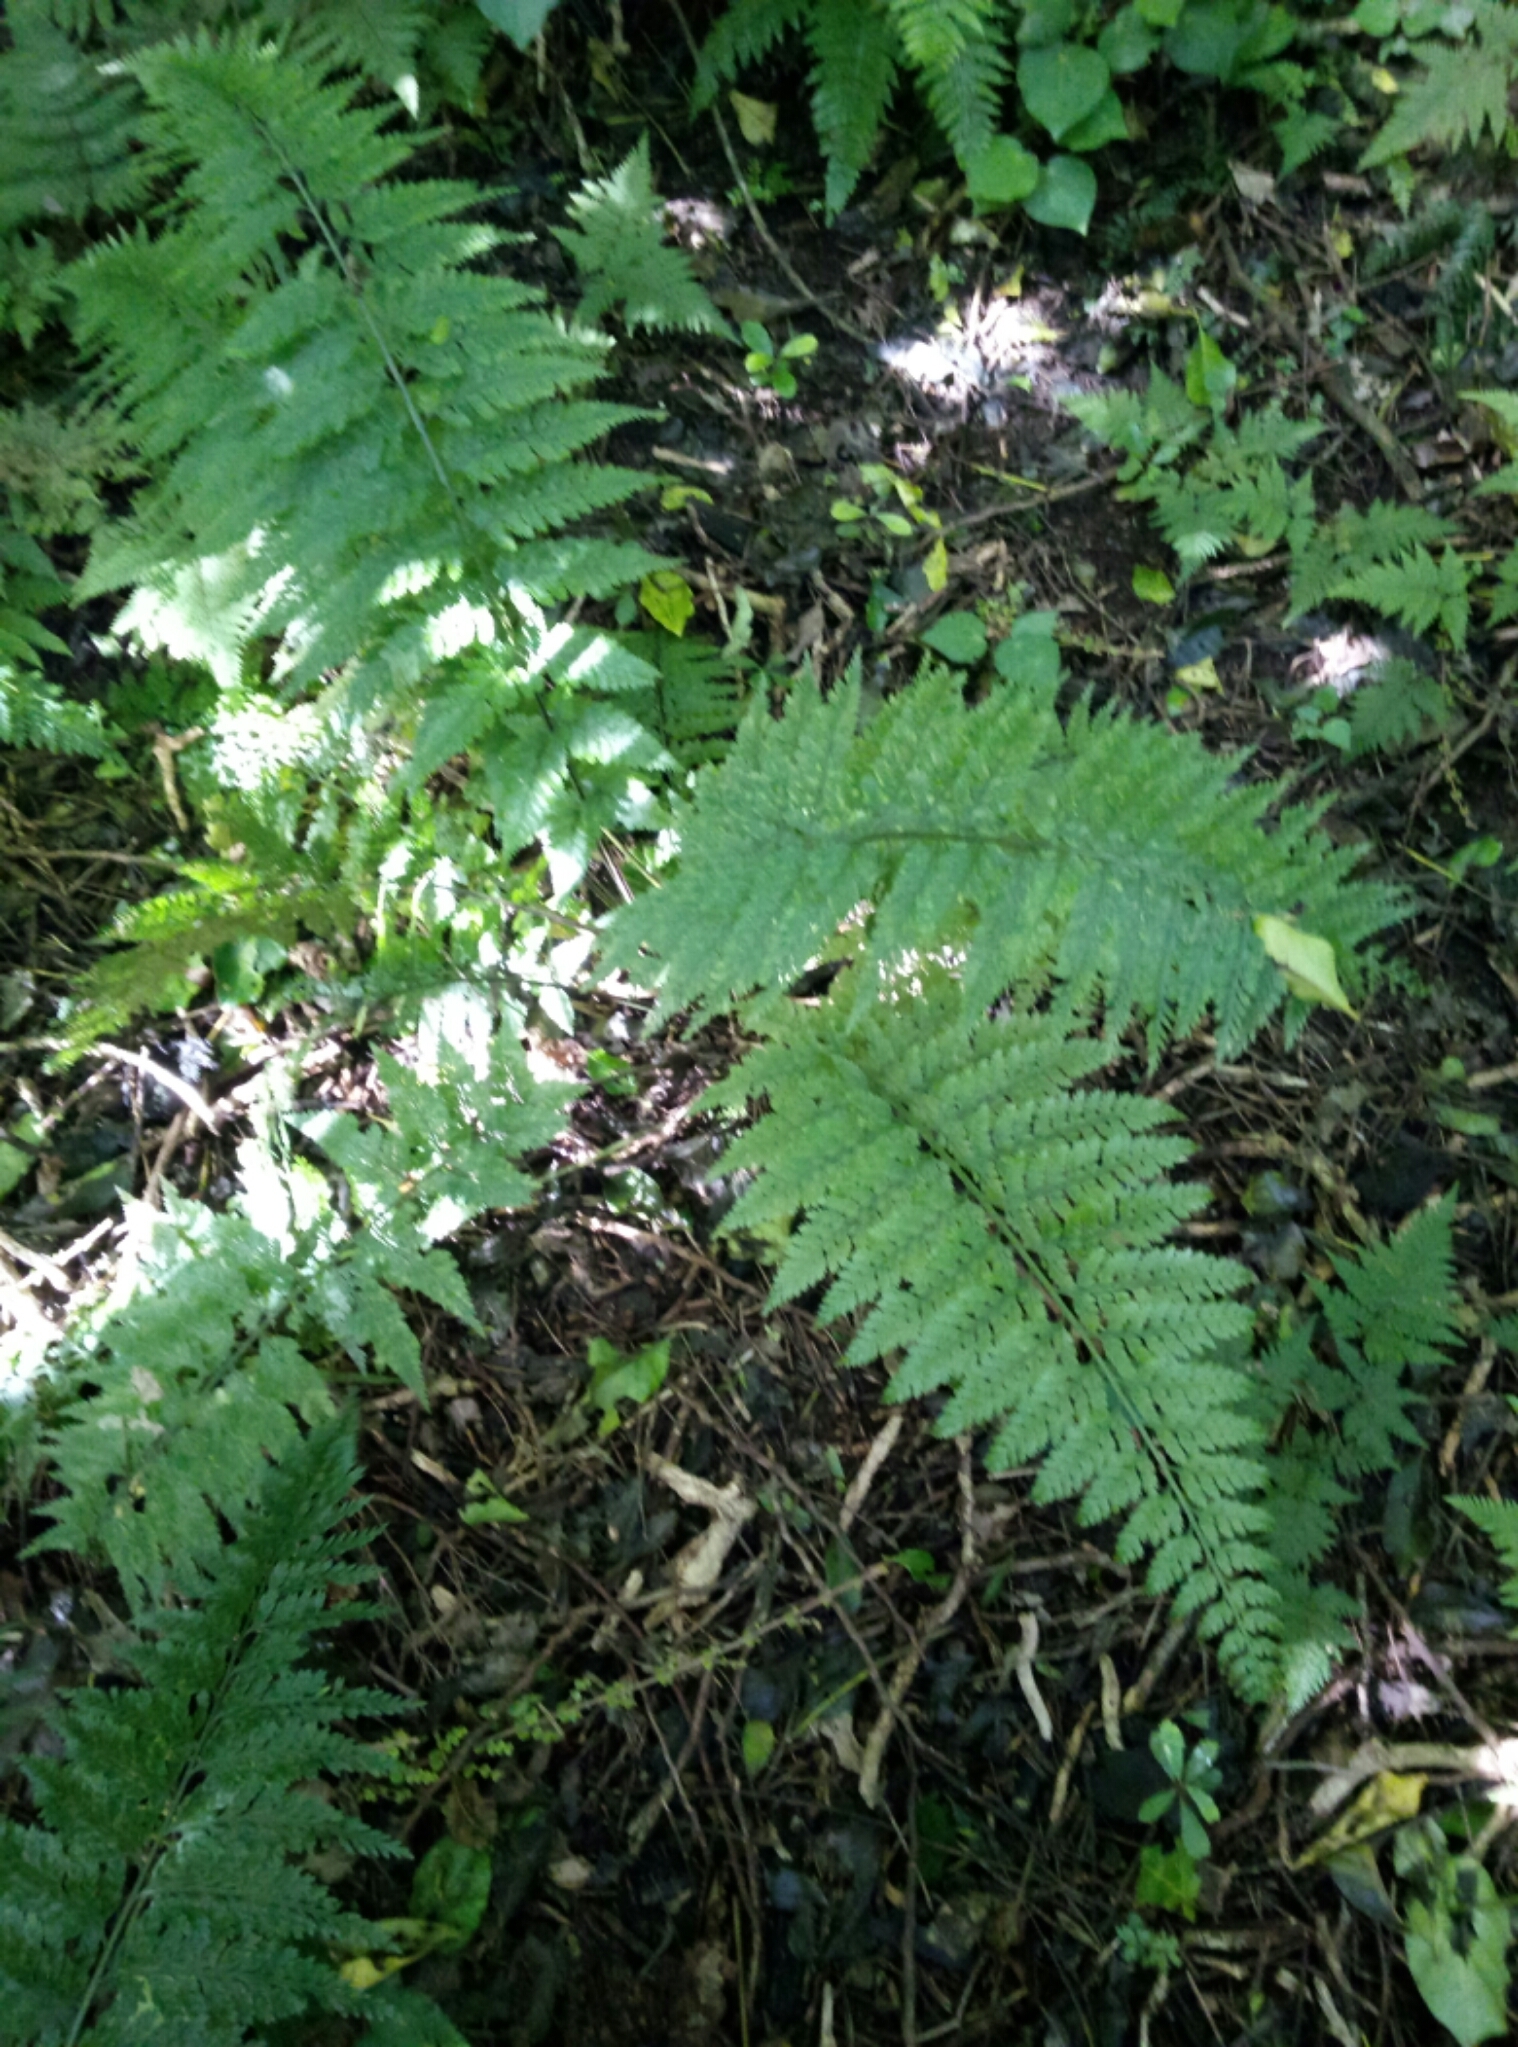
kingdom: Plantae
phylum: Tracheophyta
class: Polypodiopsida
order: Polypodiales
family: Aspleniaceae
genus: Asplenium
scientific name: Asplenium
